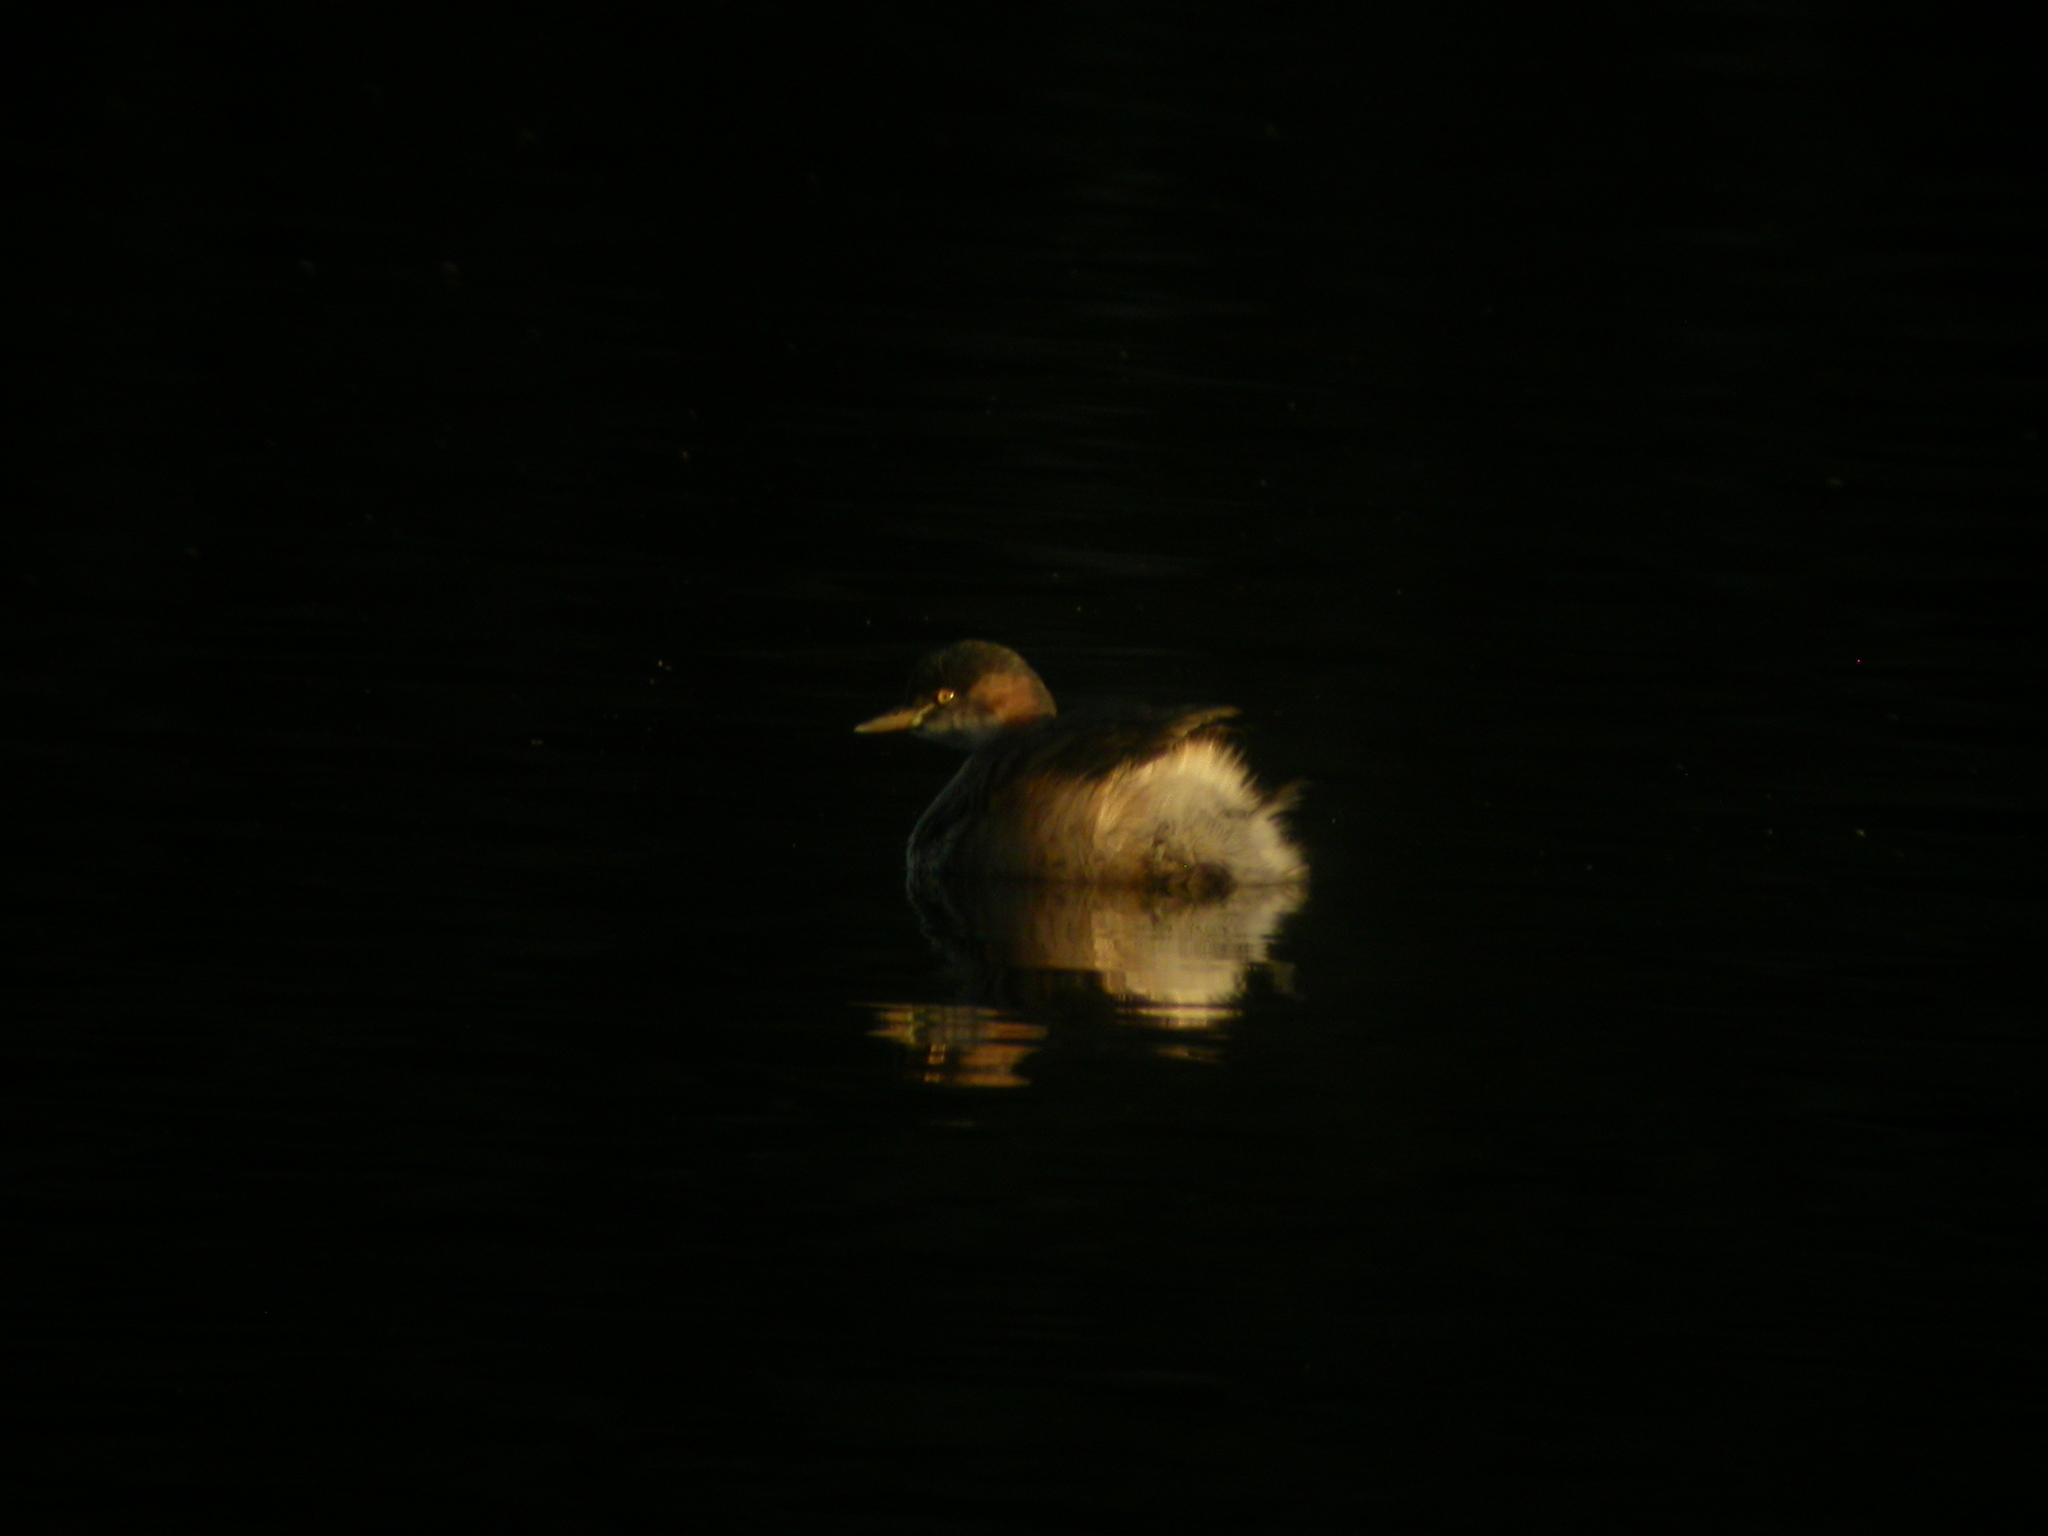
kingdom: Animalia
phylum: Chordata
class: Aves
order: Podicipediformes
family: Podicipedidae
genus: Tachybaptus
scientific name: Tachybaptus novaehollandiae
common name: Australasian grebe
